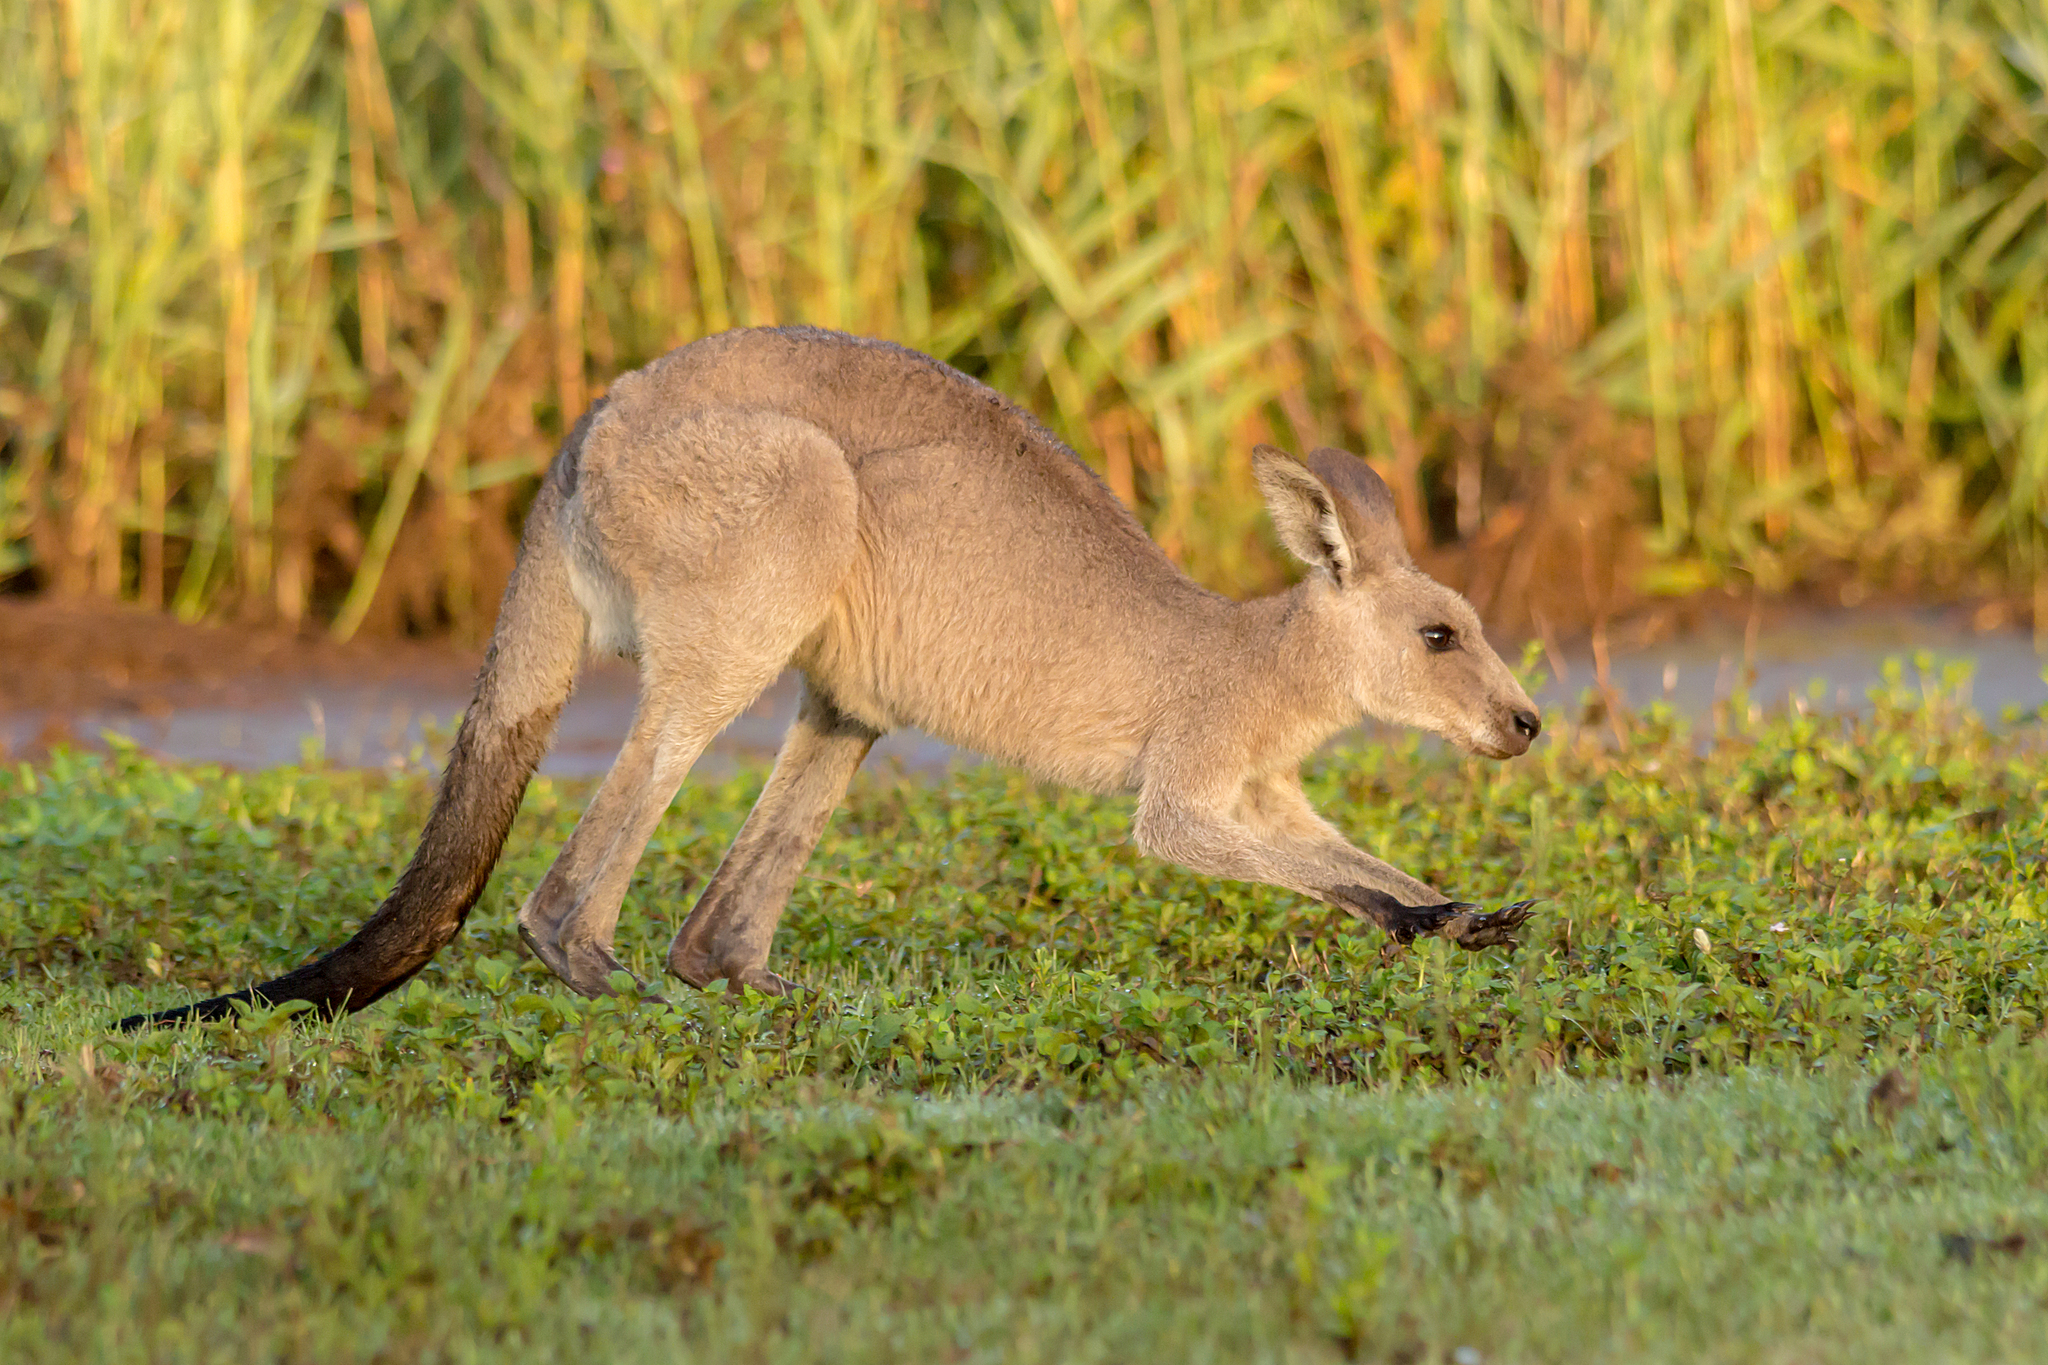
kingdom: Animalia
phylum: Chordata
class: Mammalia
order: Diprotodontia
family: Macropodidae
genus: Macropus
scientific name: Macropus giganteus
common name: Eastern grey kangaroo
